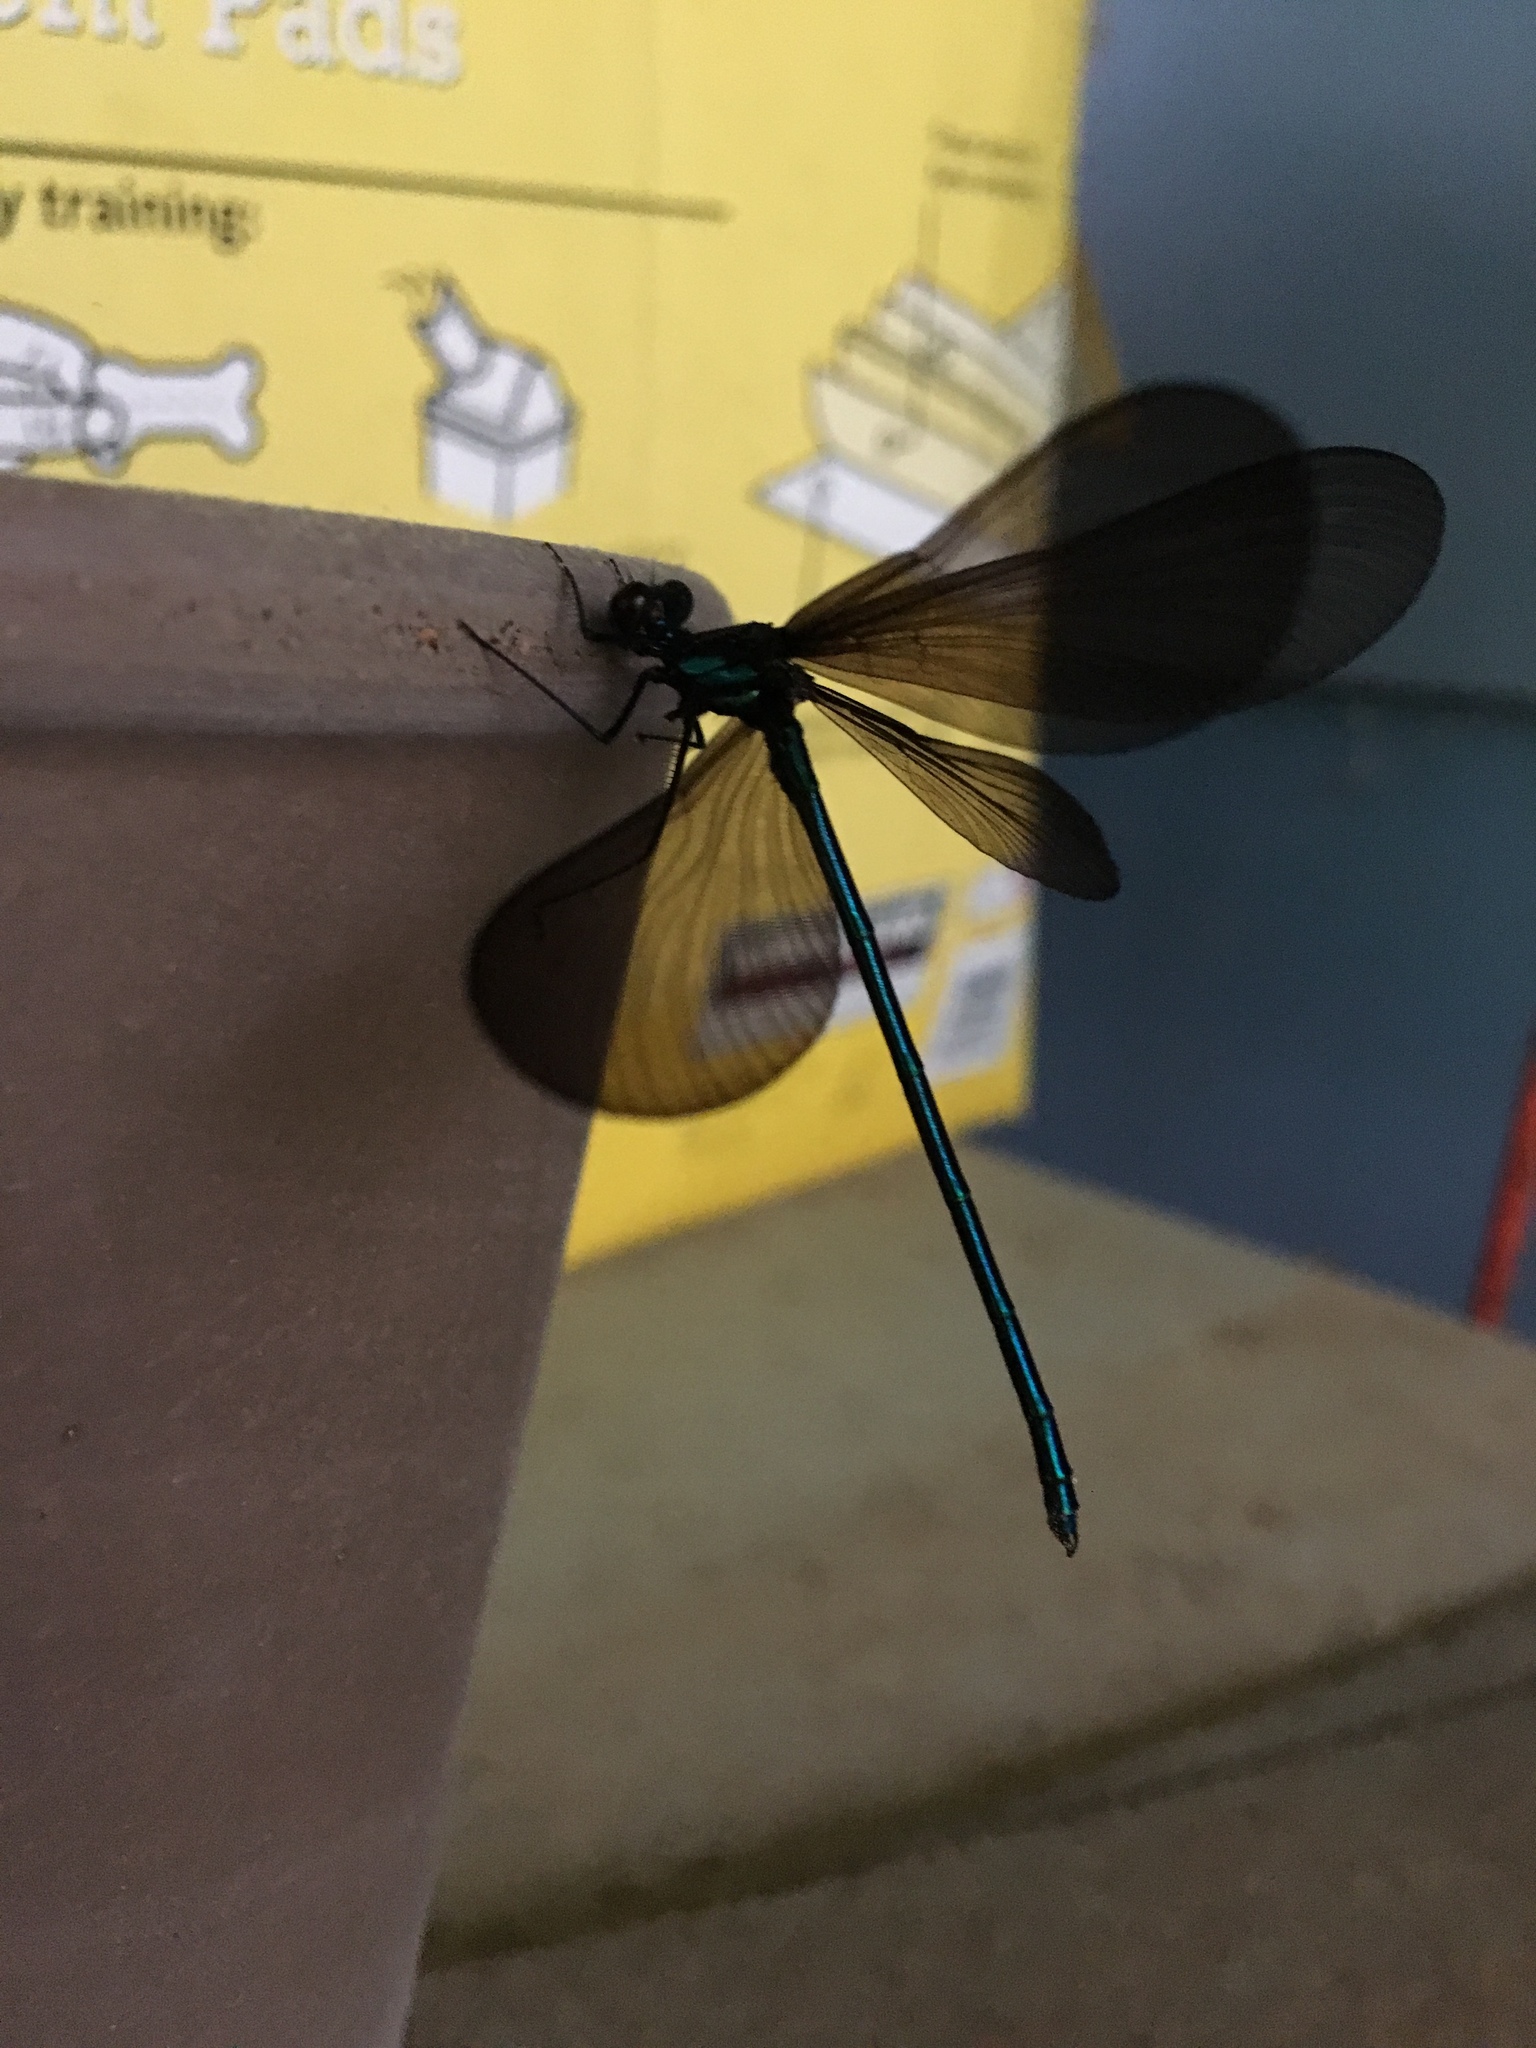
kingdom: Animalia
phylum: Arthropoda
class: Insecta
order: Odonata
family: Calopterygidae
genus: Calopteryx
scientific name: Calopteryx maculata
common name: Ebony jewelwing
